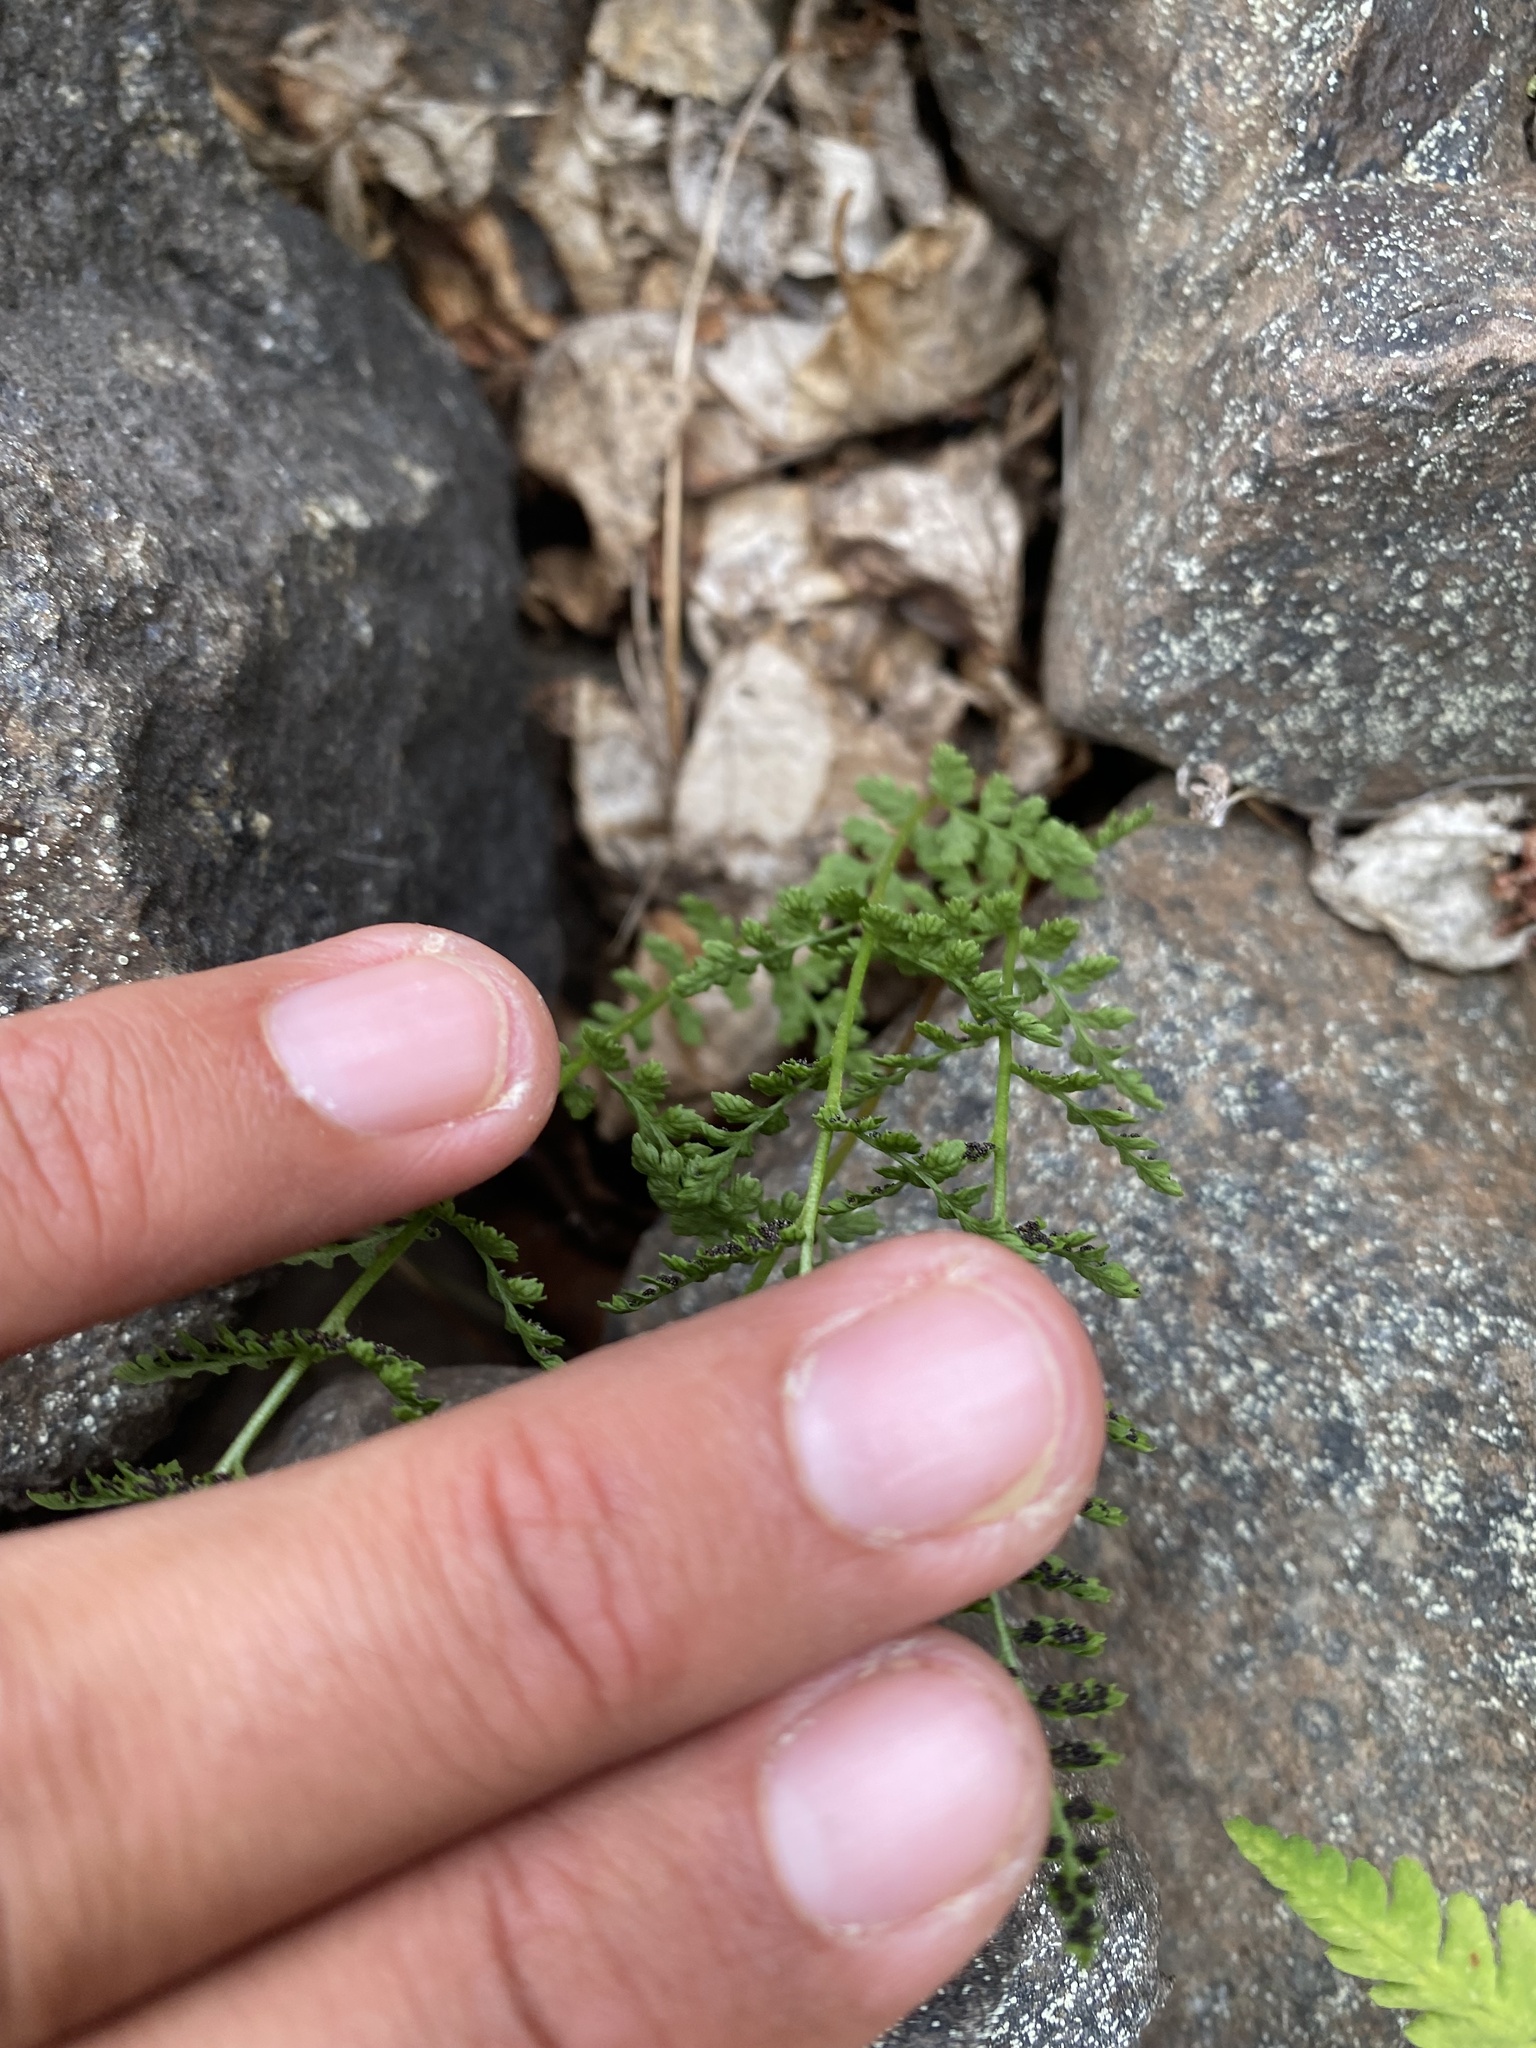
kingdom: Plantae
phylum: Tracheophyta
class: Polypodiopsida
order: Polypodiales
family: Cystopteridaceae
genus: Cystopteris
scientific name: Cystopteris fragilis
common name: Brittle bladder fern
